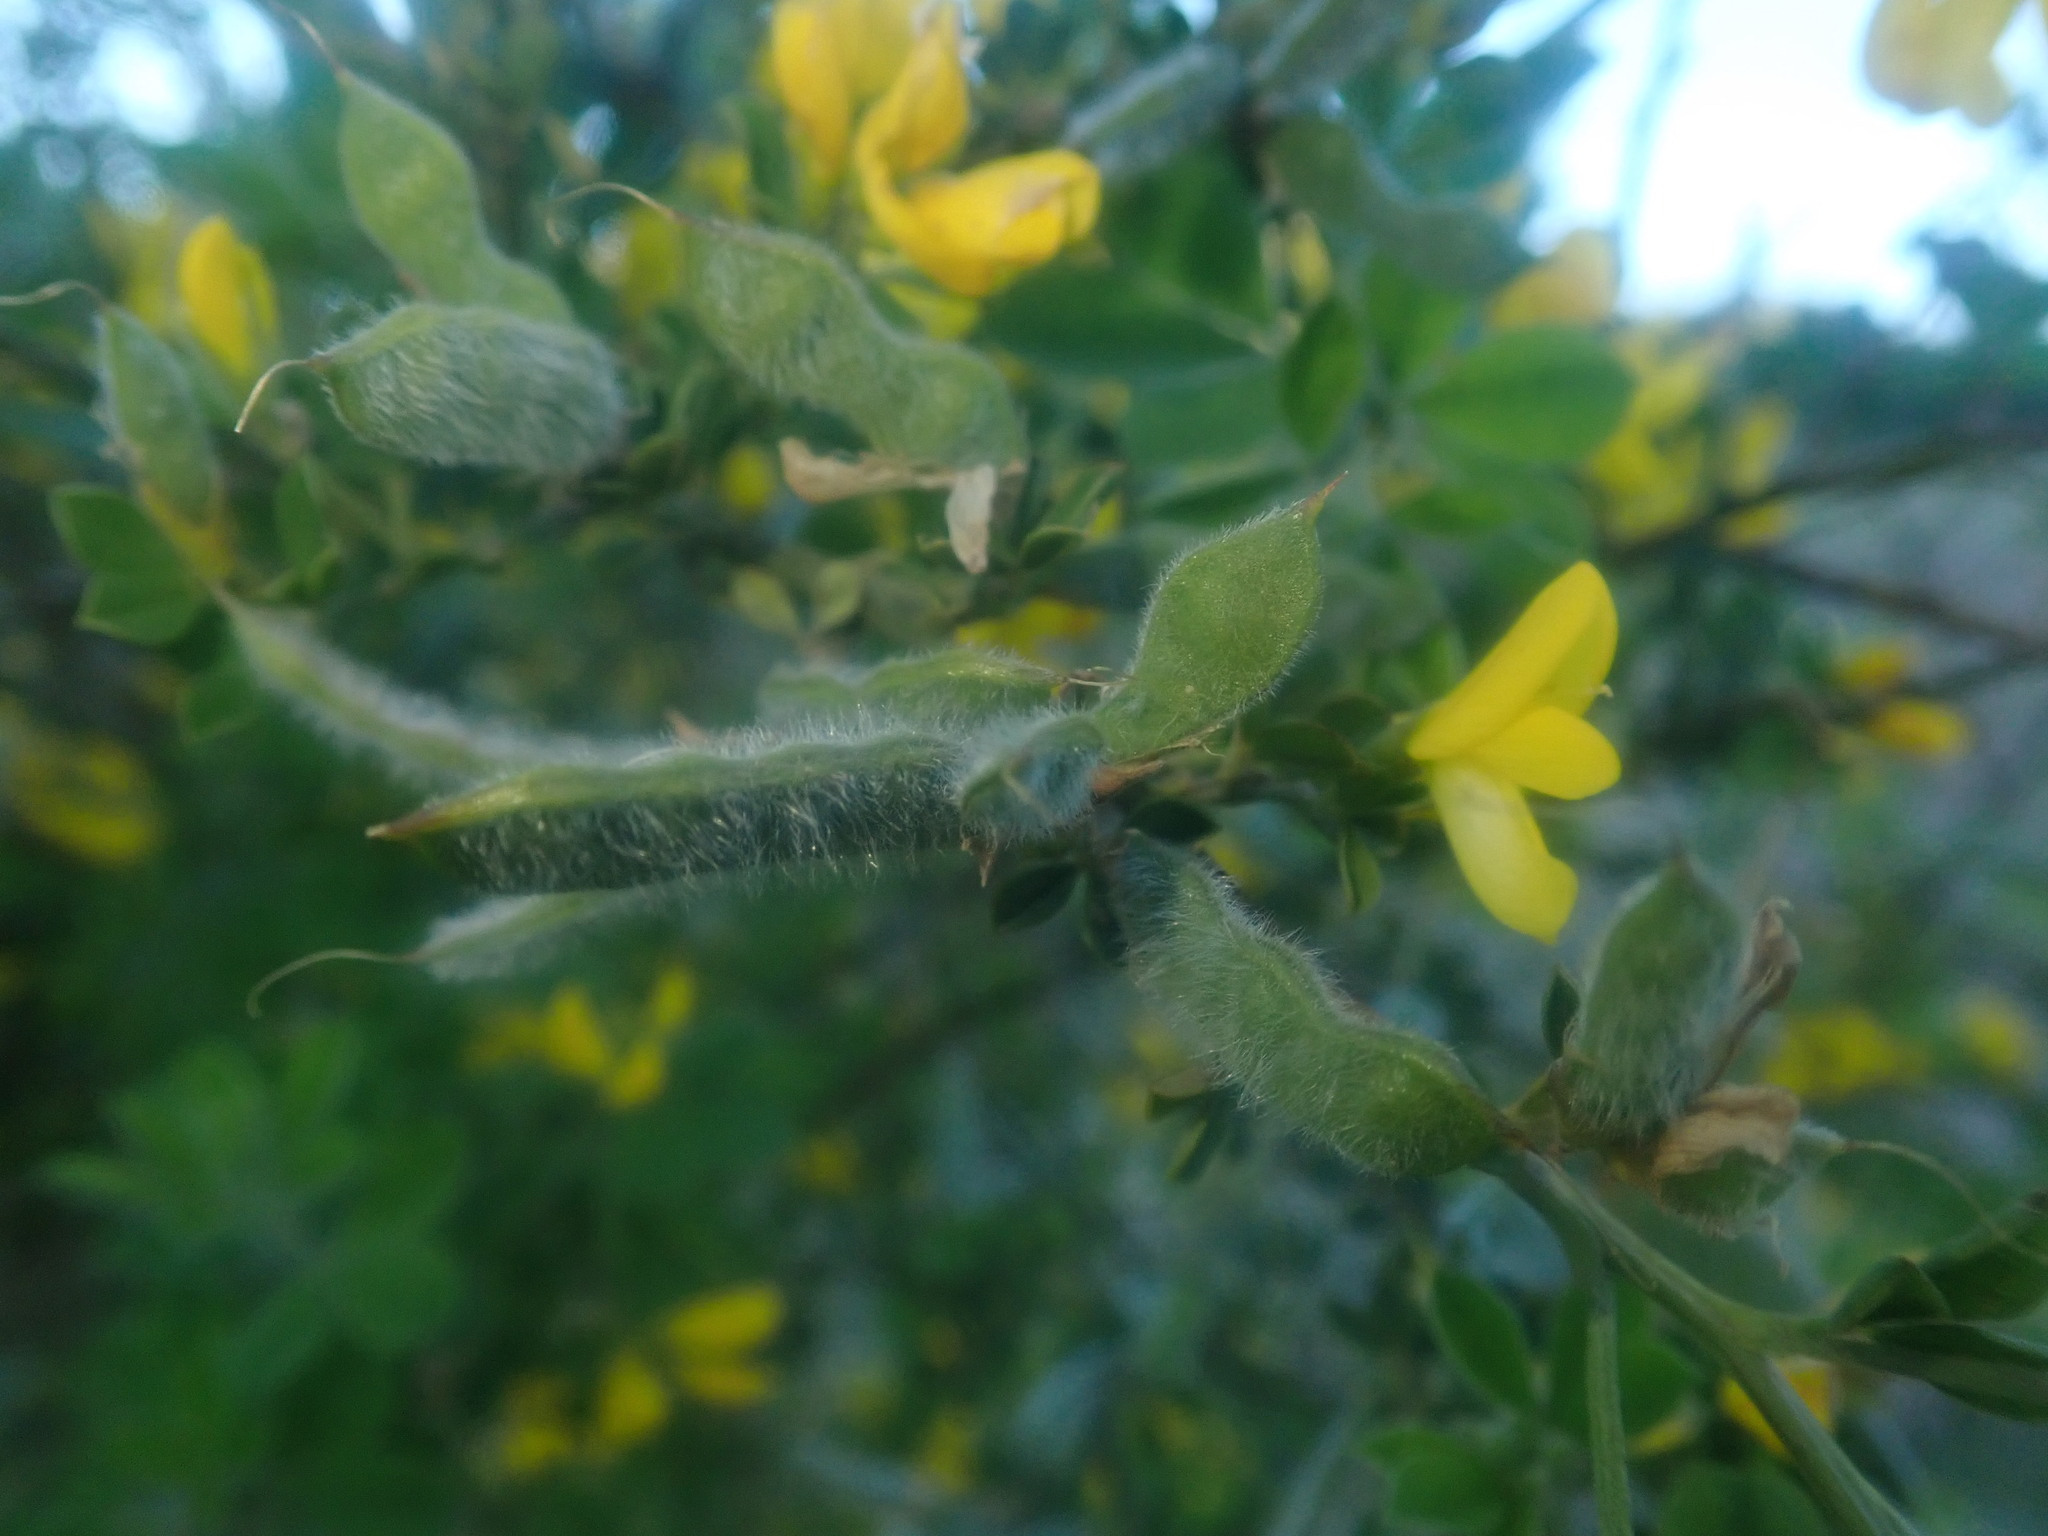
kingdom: Plantae
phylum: Tracheophyta
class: Magnoliopsida
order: Fabales
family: Fabaceae
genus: Genista
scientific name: Genista maderensis
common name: Madeira dyer's greenweed
